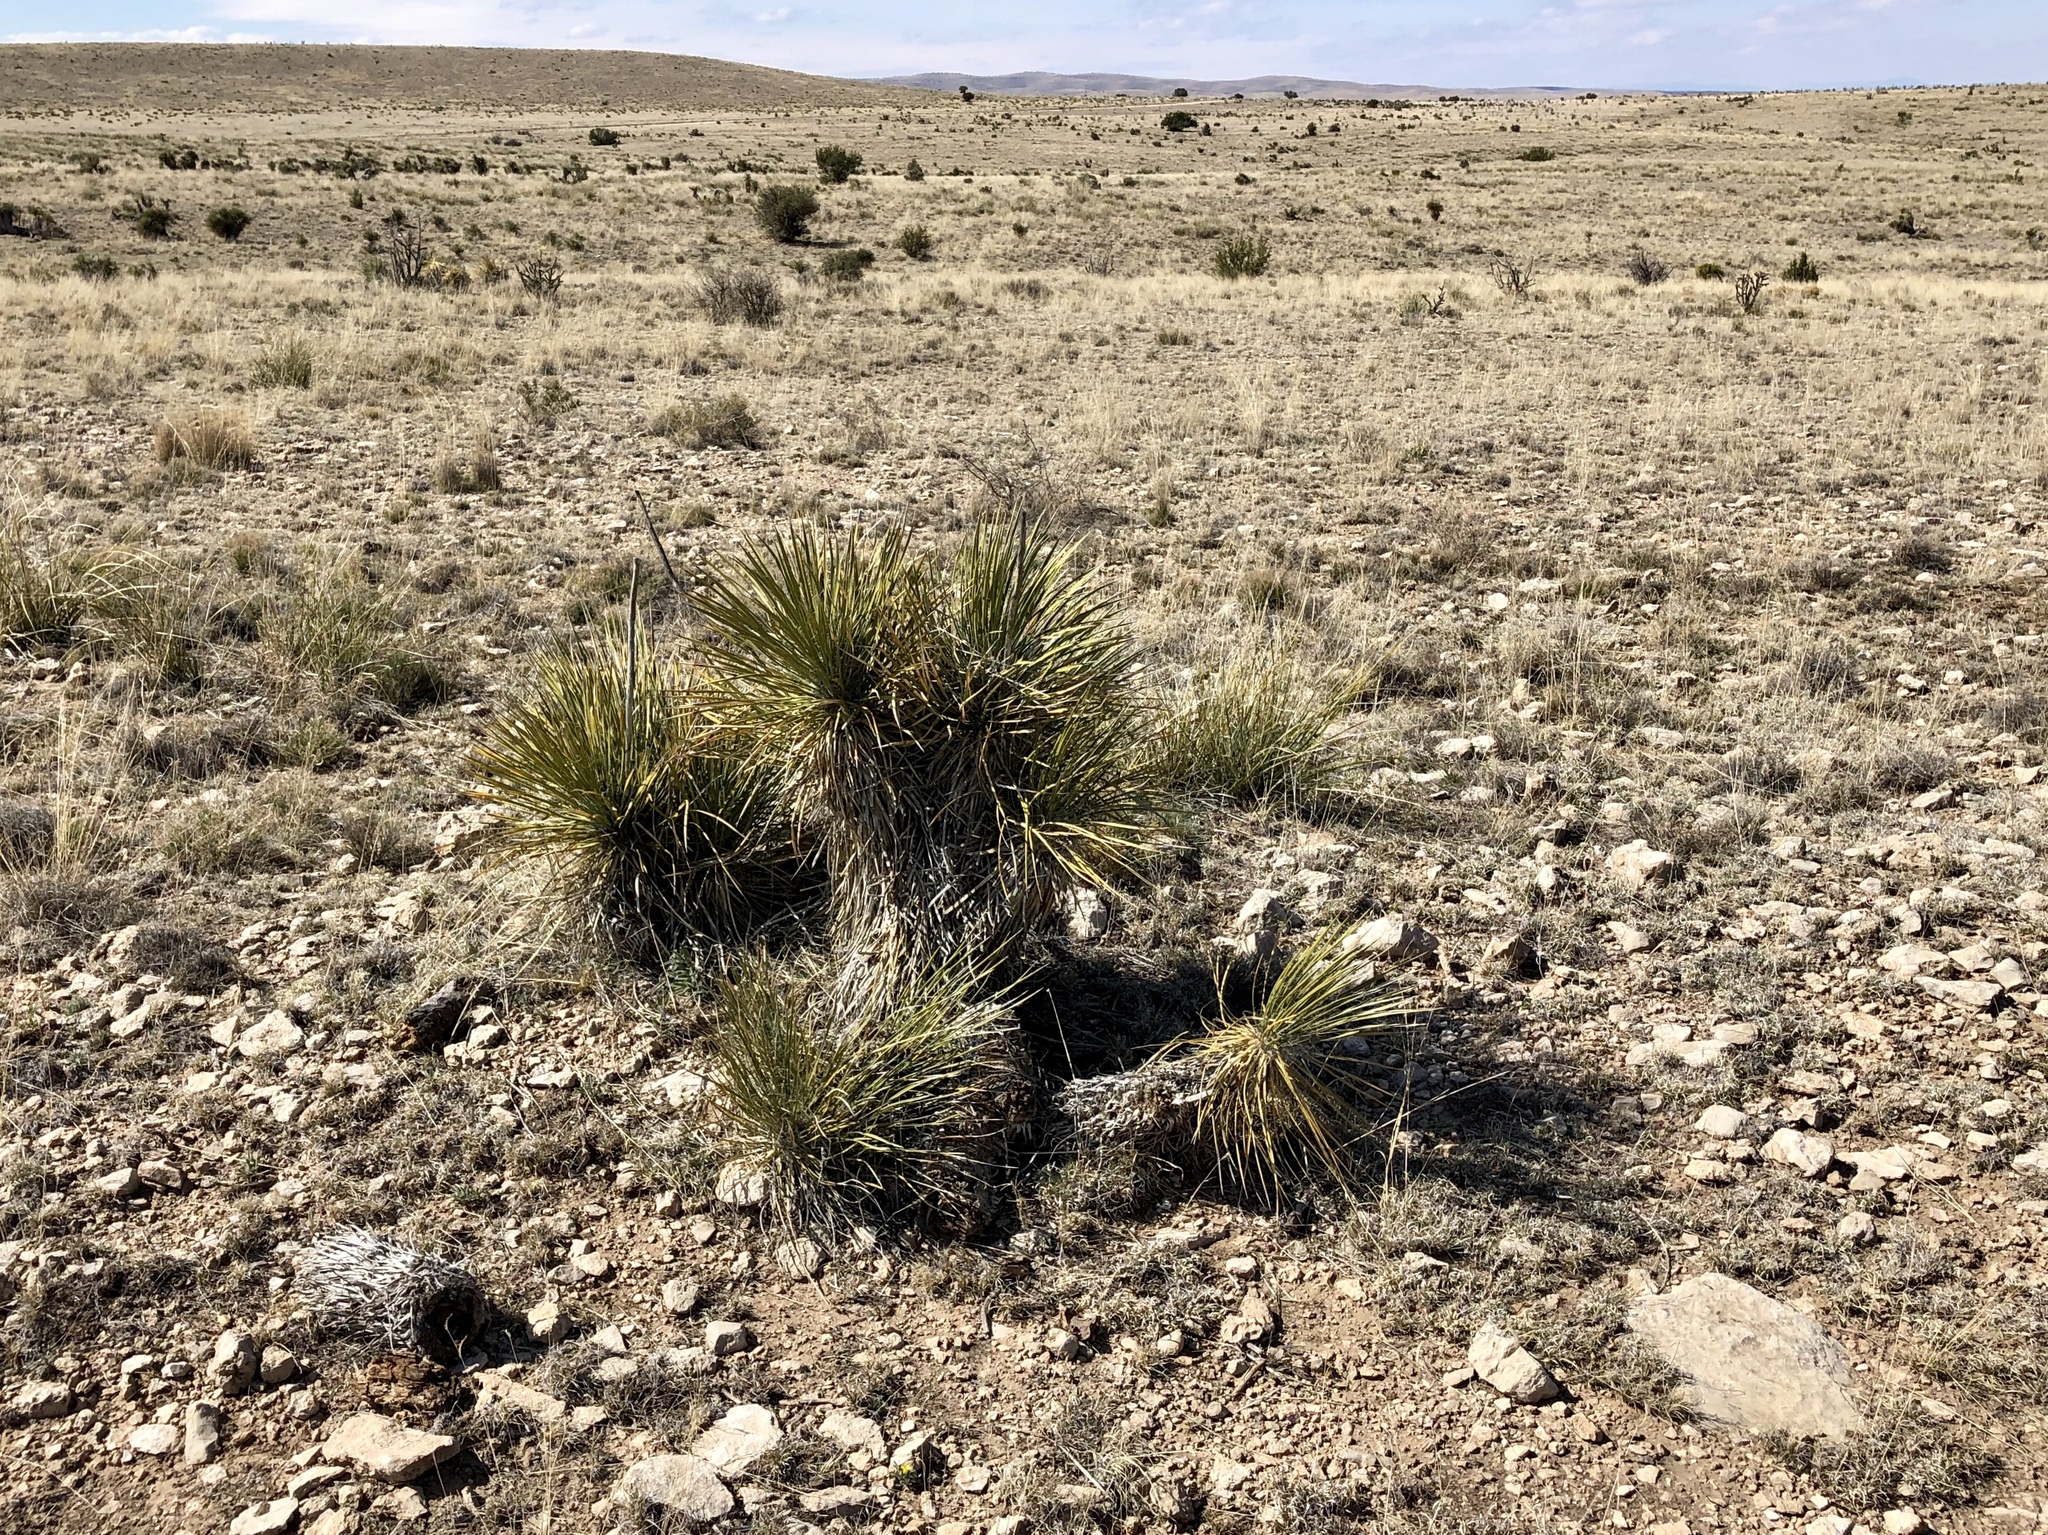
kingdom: Plantae
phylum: Tracheophyta
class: Liliopsida
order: Asparagales
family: Asparagaceae
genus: Yucca
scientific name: Yucca elata
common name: Palmella
